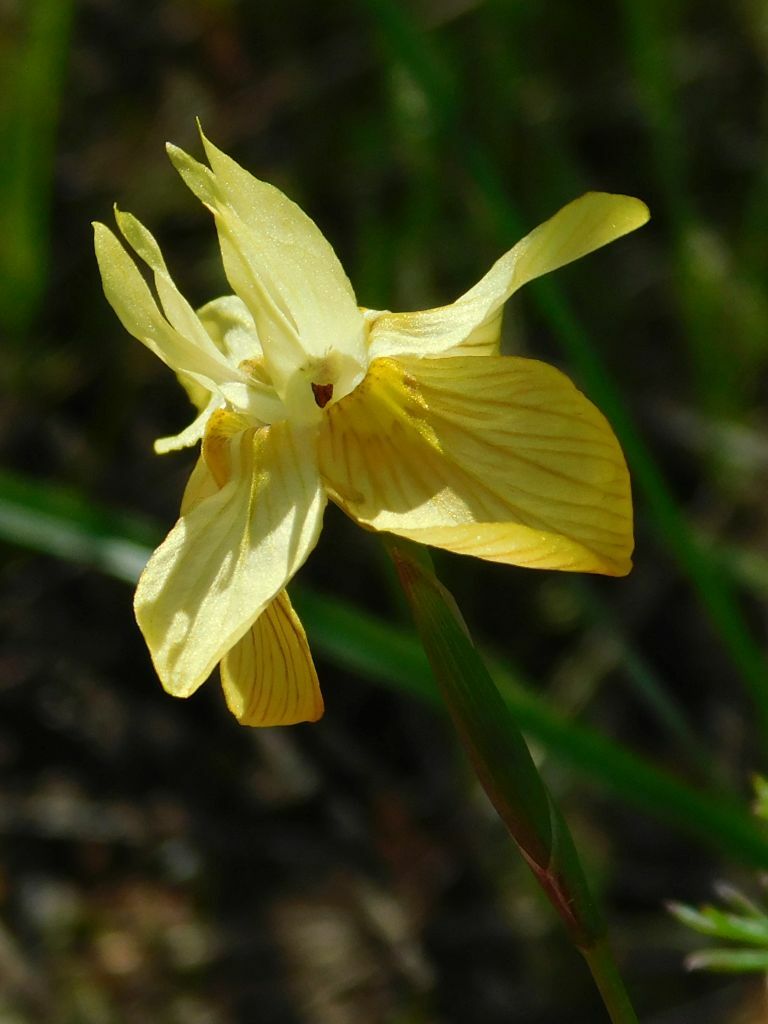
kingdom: Plantae
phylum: Tracheophyta
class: Liliopsida
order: Asparagales
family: Iridaceae
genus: Moraea
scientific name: Moraea gawleri
